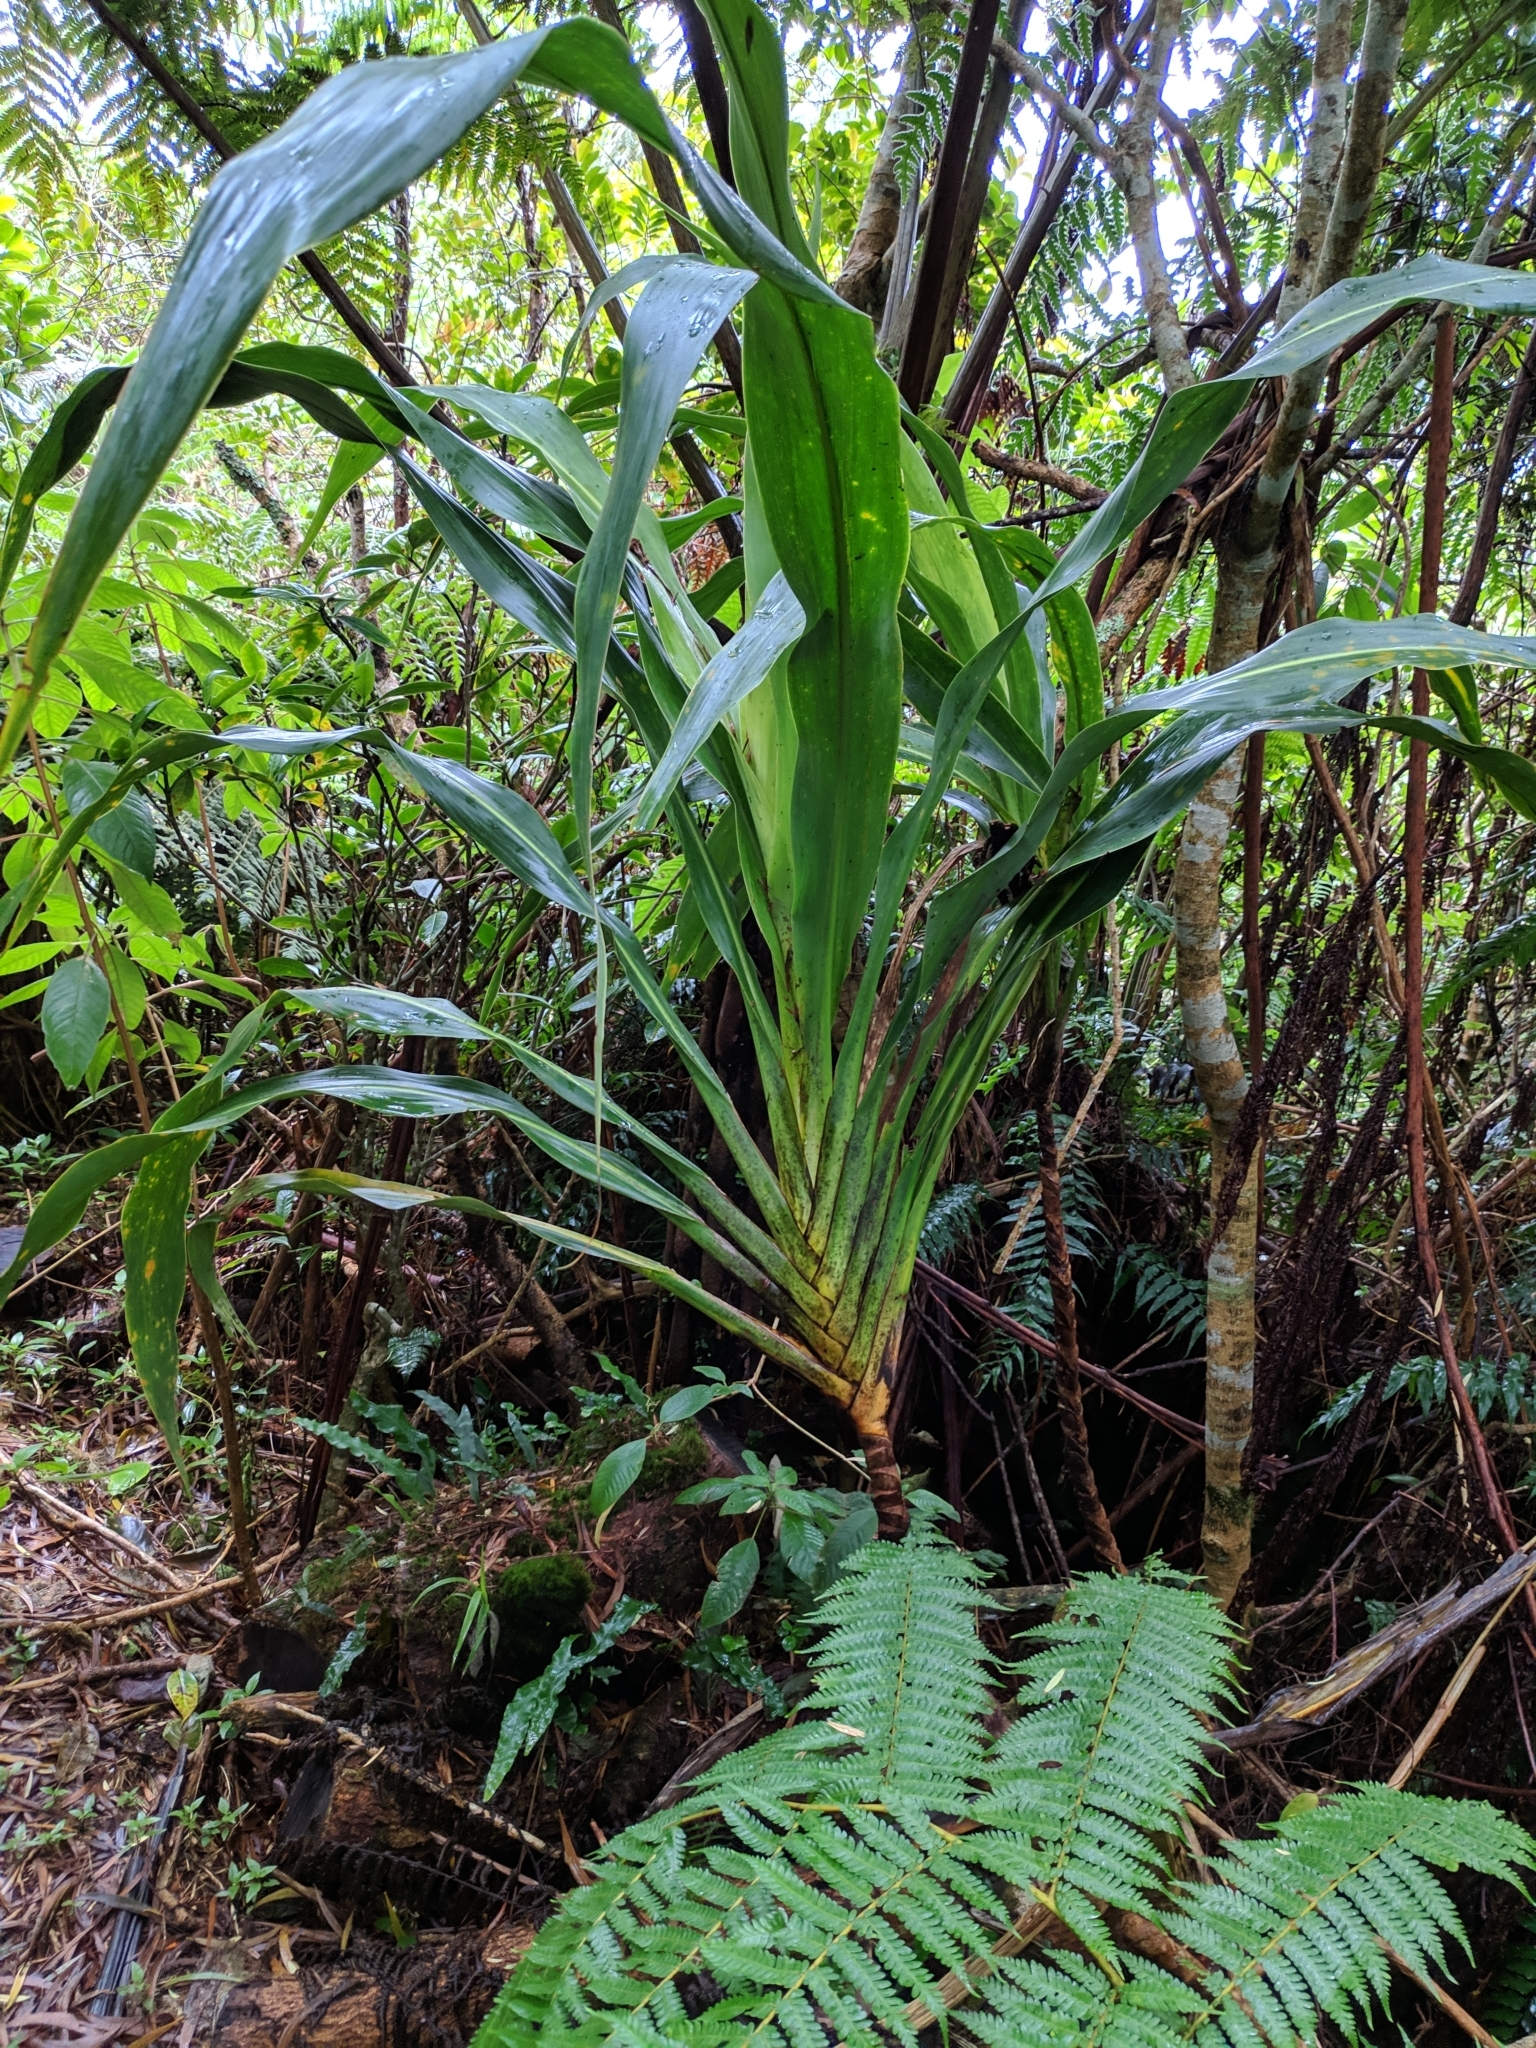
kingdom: Plantae
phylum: Tracheophyta
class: Liliopsida
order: Asparagales
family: Asparagaceae
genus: Cordyline
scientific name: Cordyline mauritiana
